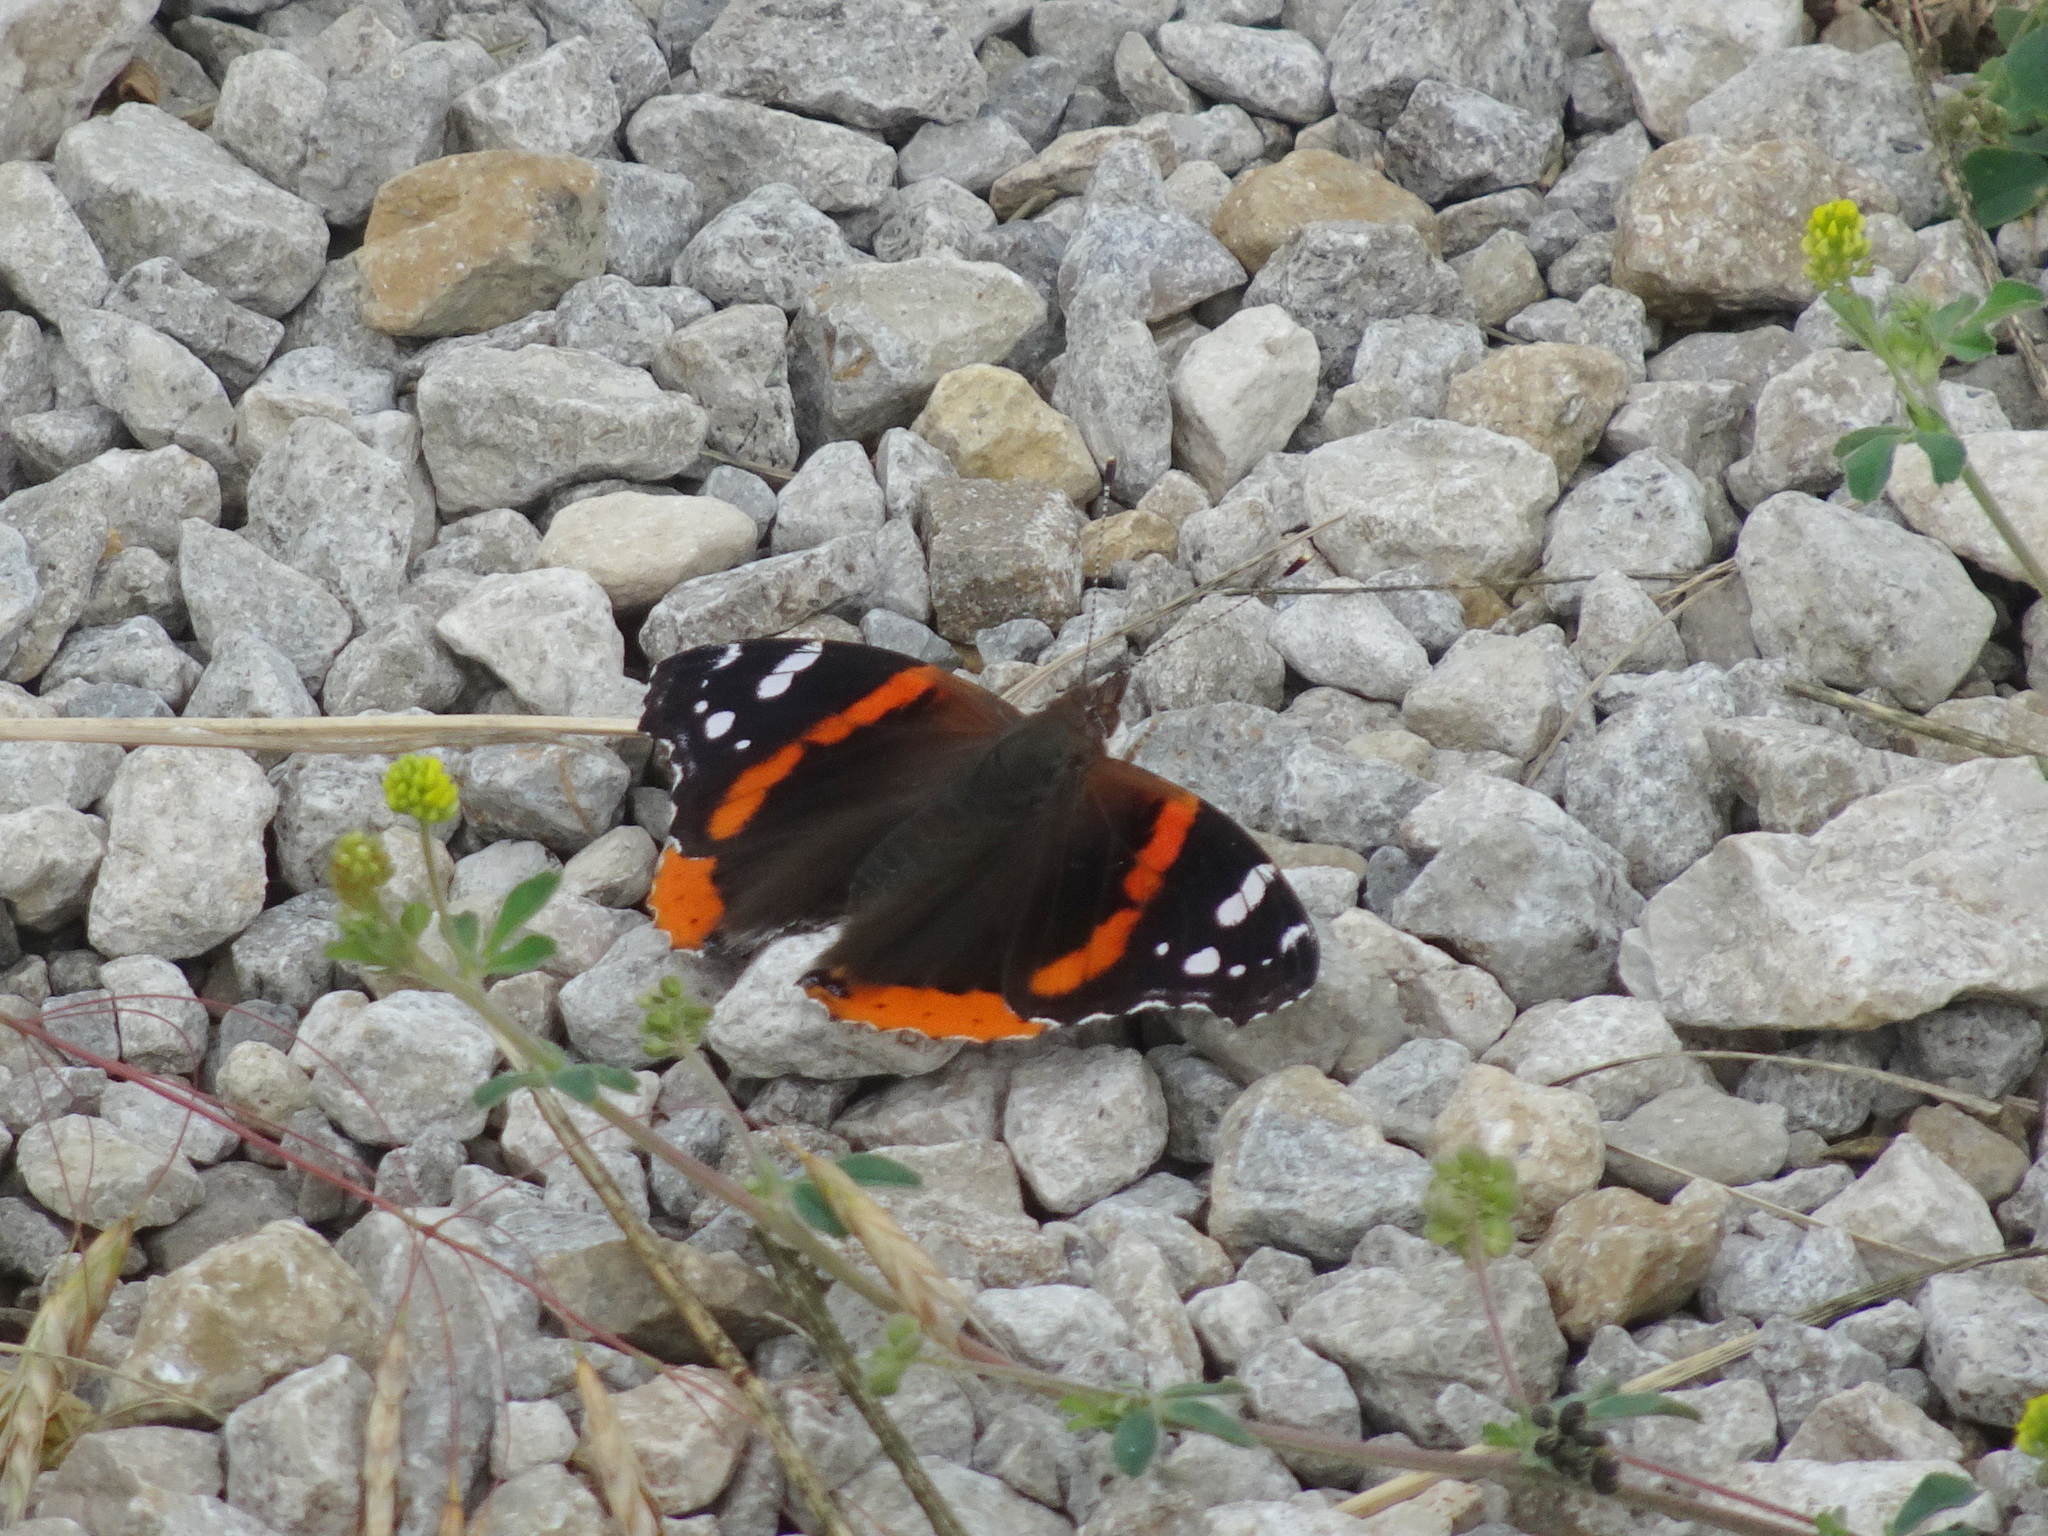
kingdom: Animalia
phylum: Arthropoda
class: Insecta
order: Lepidoptera
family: Nymphalidae
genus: Vanessa
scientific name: Vanessa atalanta
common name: Red admiral
